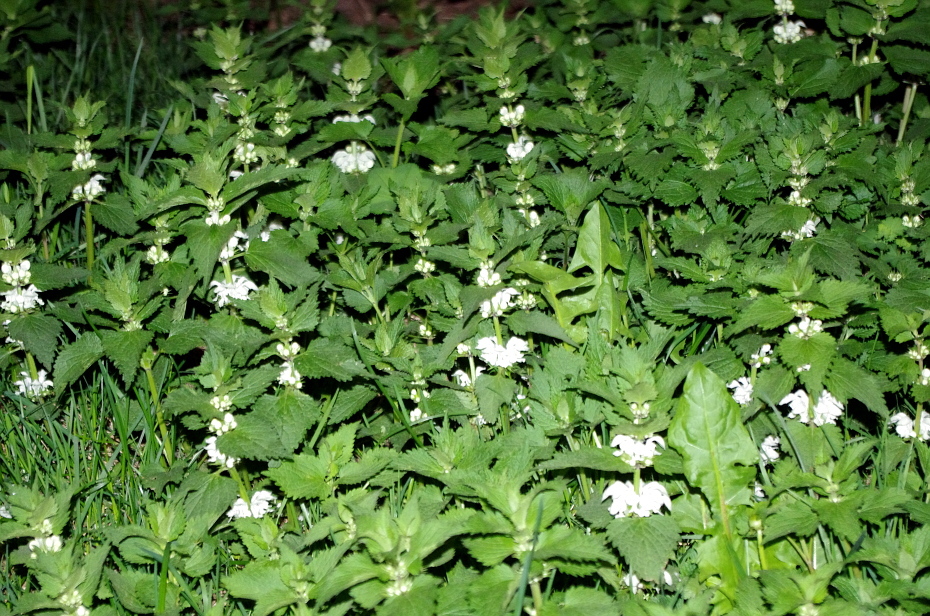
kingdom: Plantae
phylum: Tracheophyta
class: Magnoliopsida
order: Lamiales
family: Lamiaceae
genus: Lamium
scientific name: Lamium album
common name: White dead-nettle
